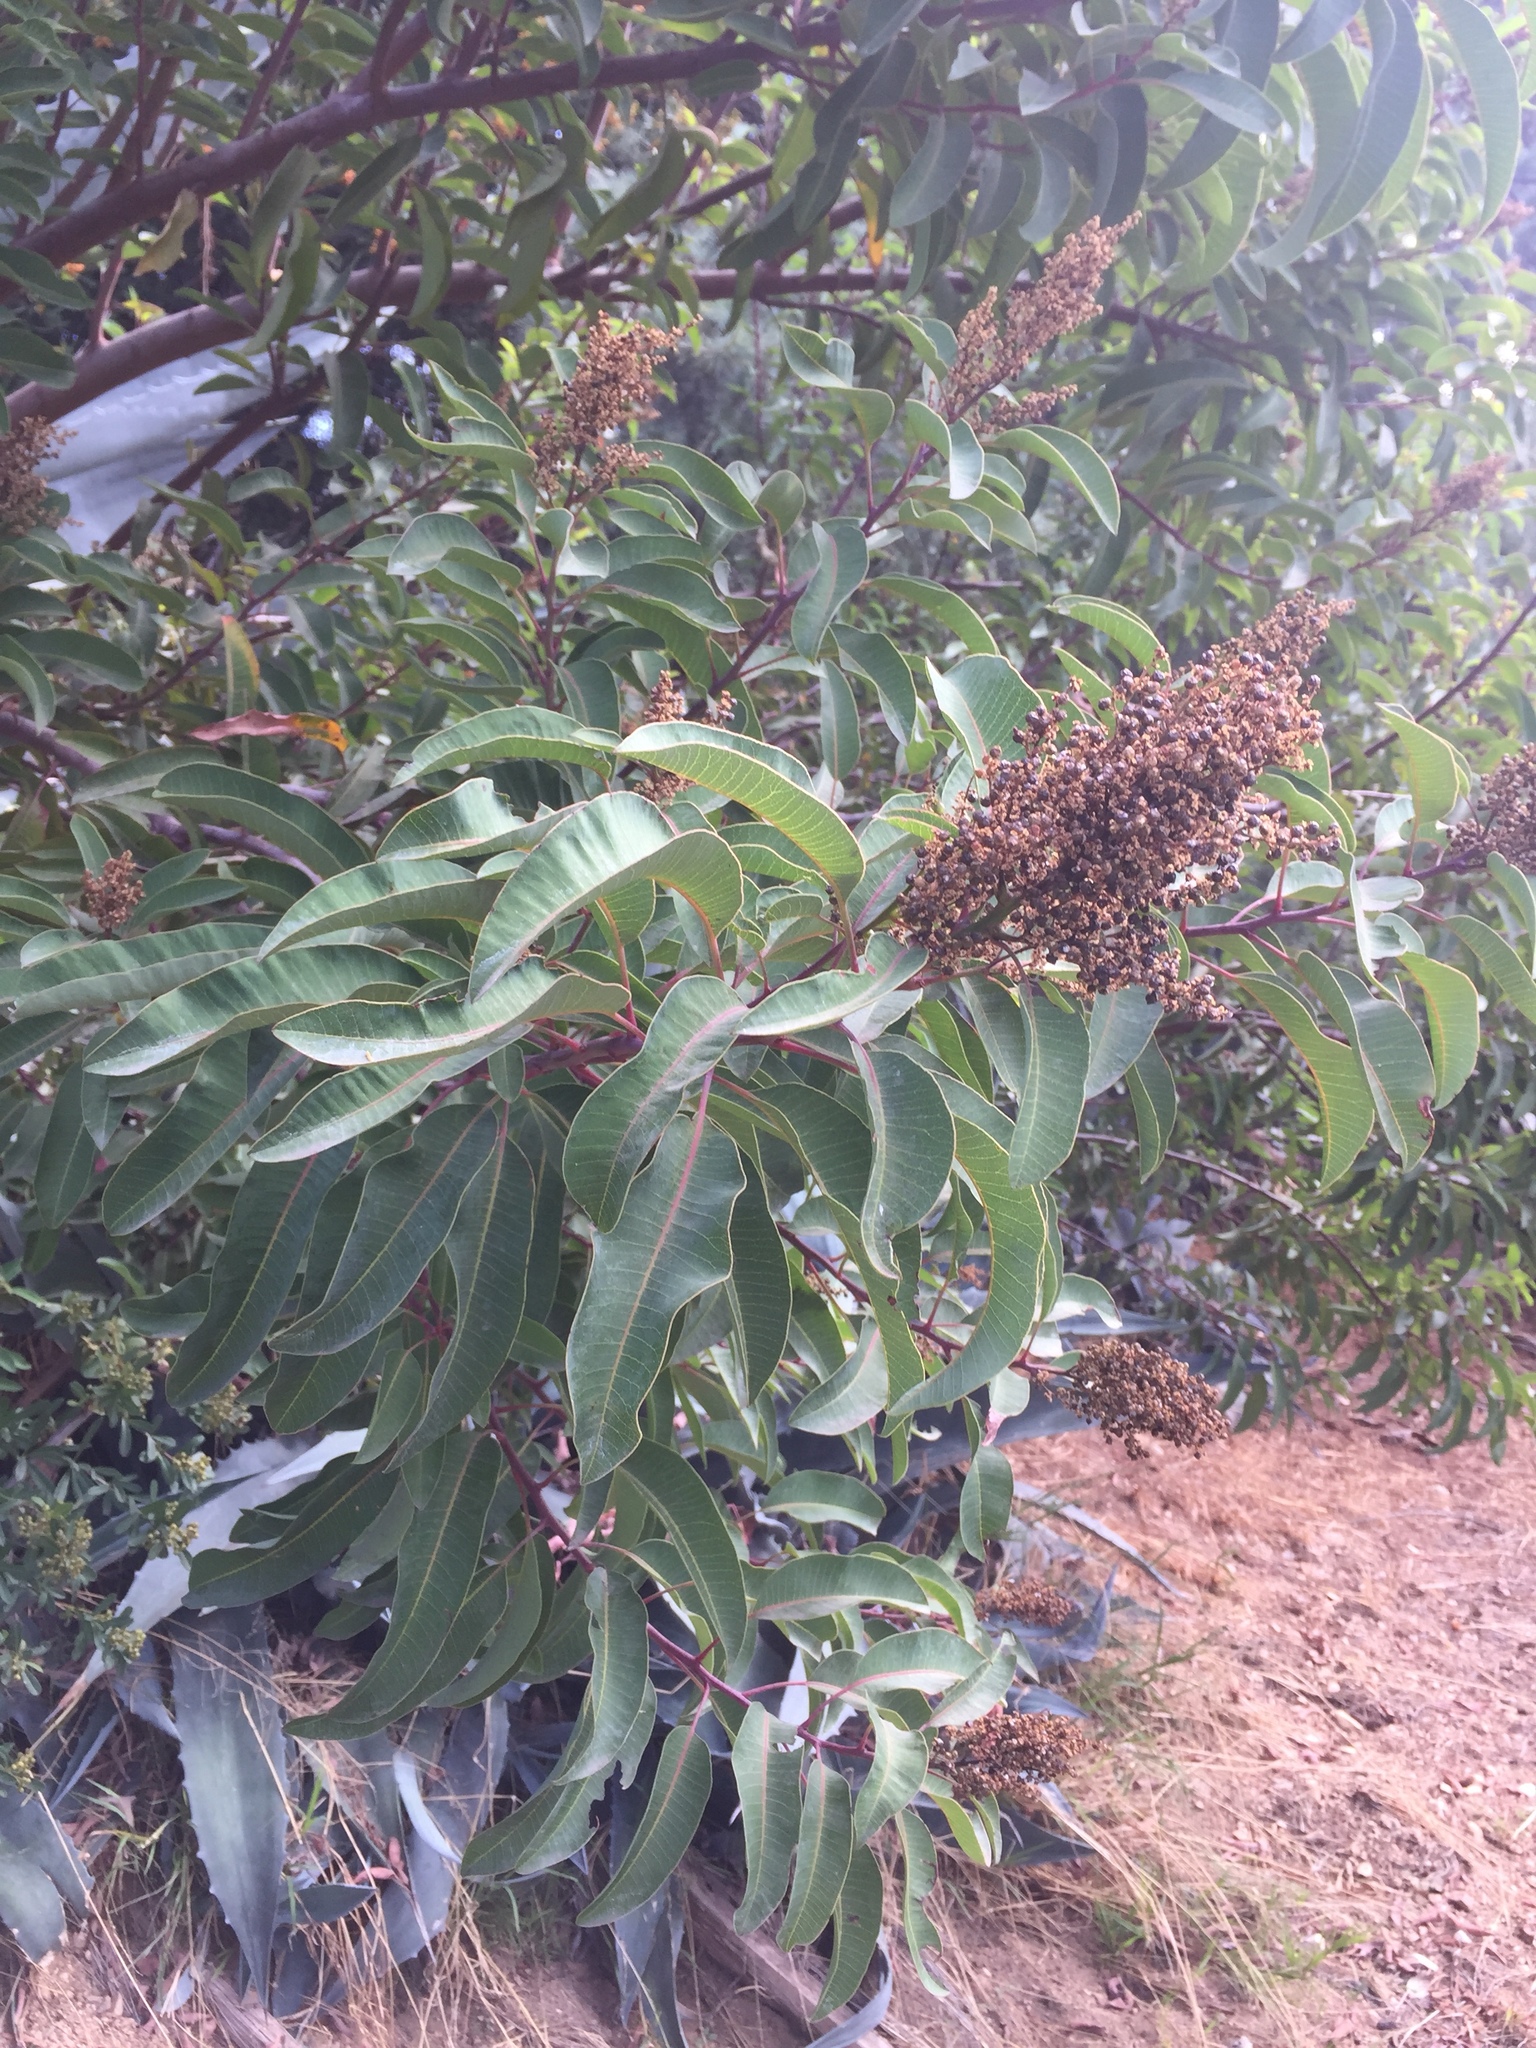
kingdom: Plantae
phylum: Tracheophyta
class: Magnoliopsida
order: Sapindales
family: Anacardiaceae
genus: Malosma
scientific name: Malosma laurina
